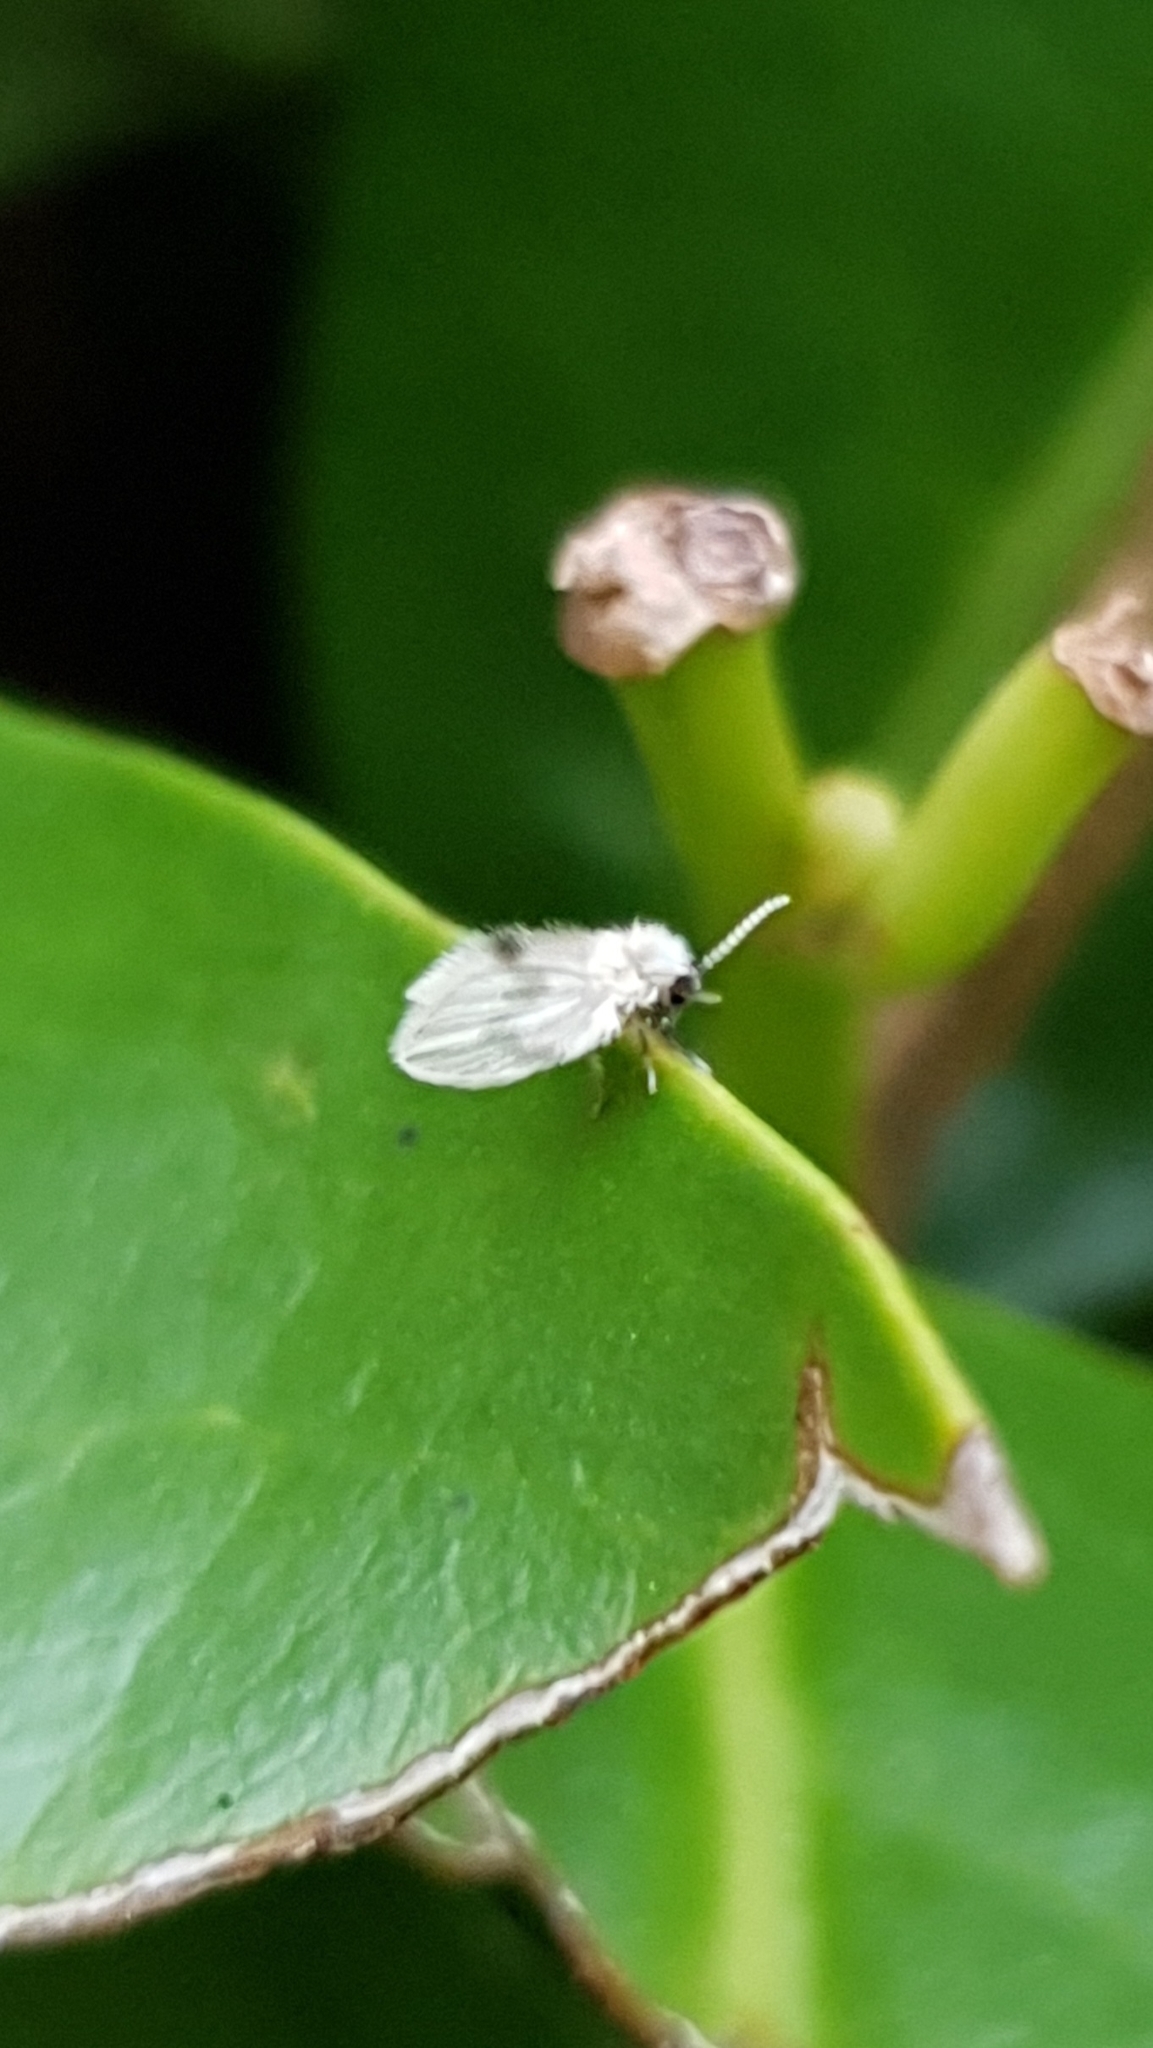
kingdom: Animalia
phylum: Arthropoda
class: Insecta
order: Diptera
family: Psychodidae
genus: Psychoda
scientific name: Psychoda sigma
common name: Moth fly
